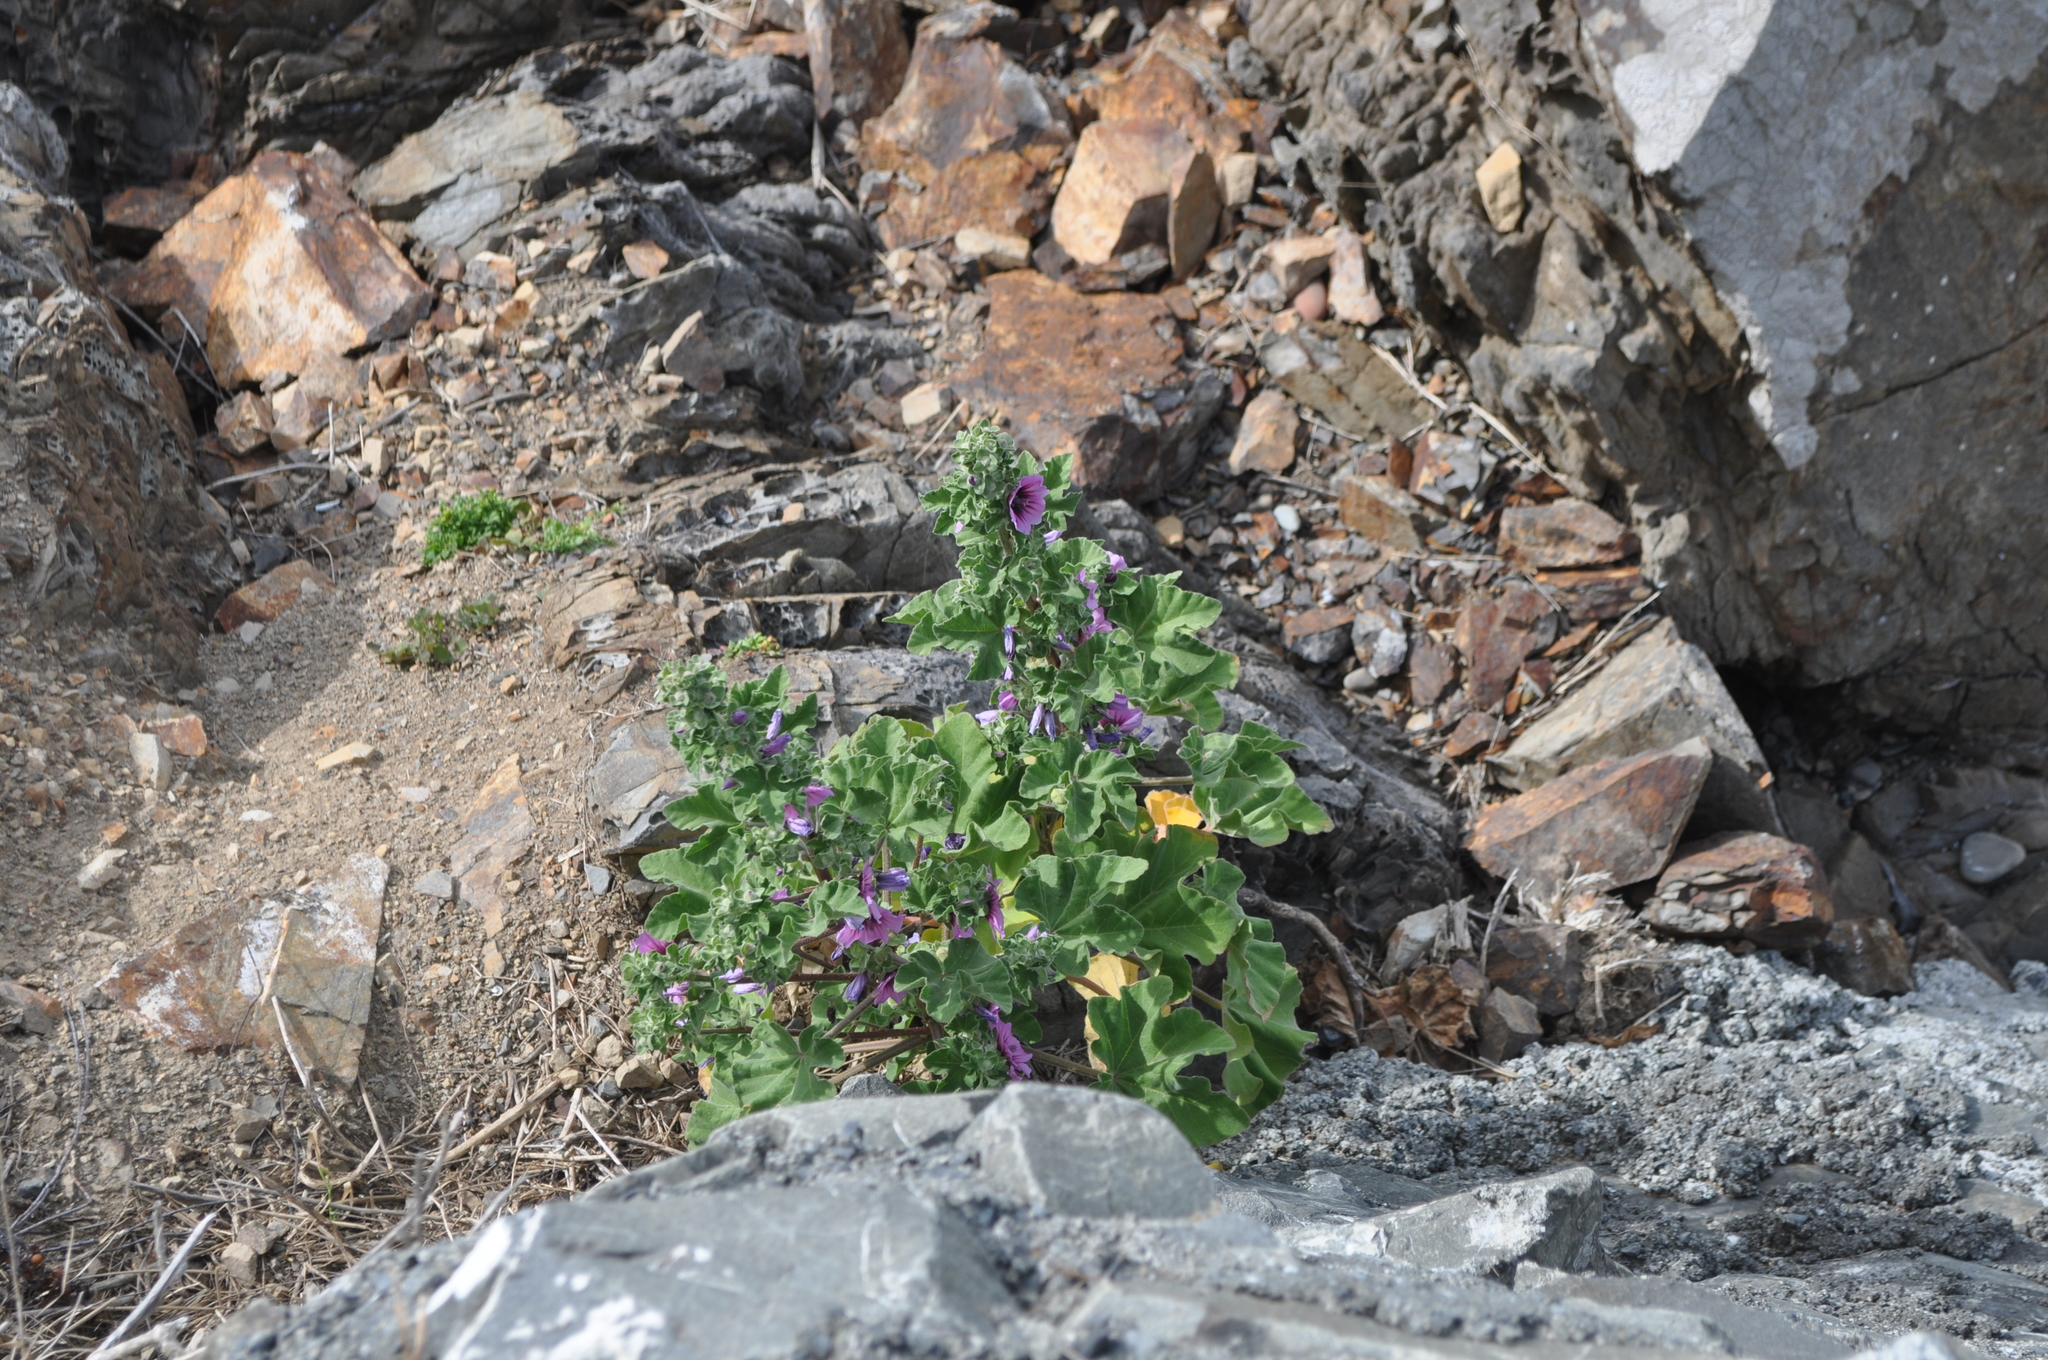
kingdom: Plantae
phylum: Tracheophyta
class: Magnoliopsida
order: Malvales
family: Malvaceae
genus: Malva
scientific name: Malva arborea
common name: Tree mallow
